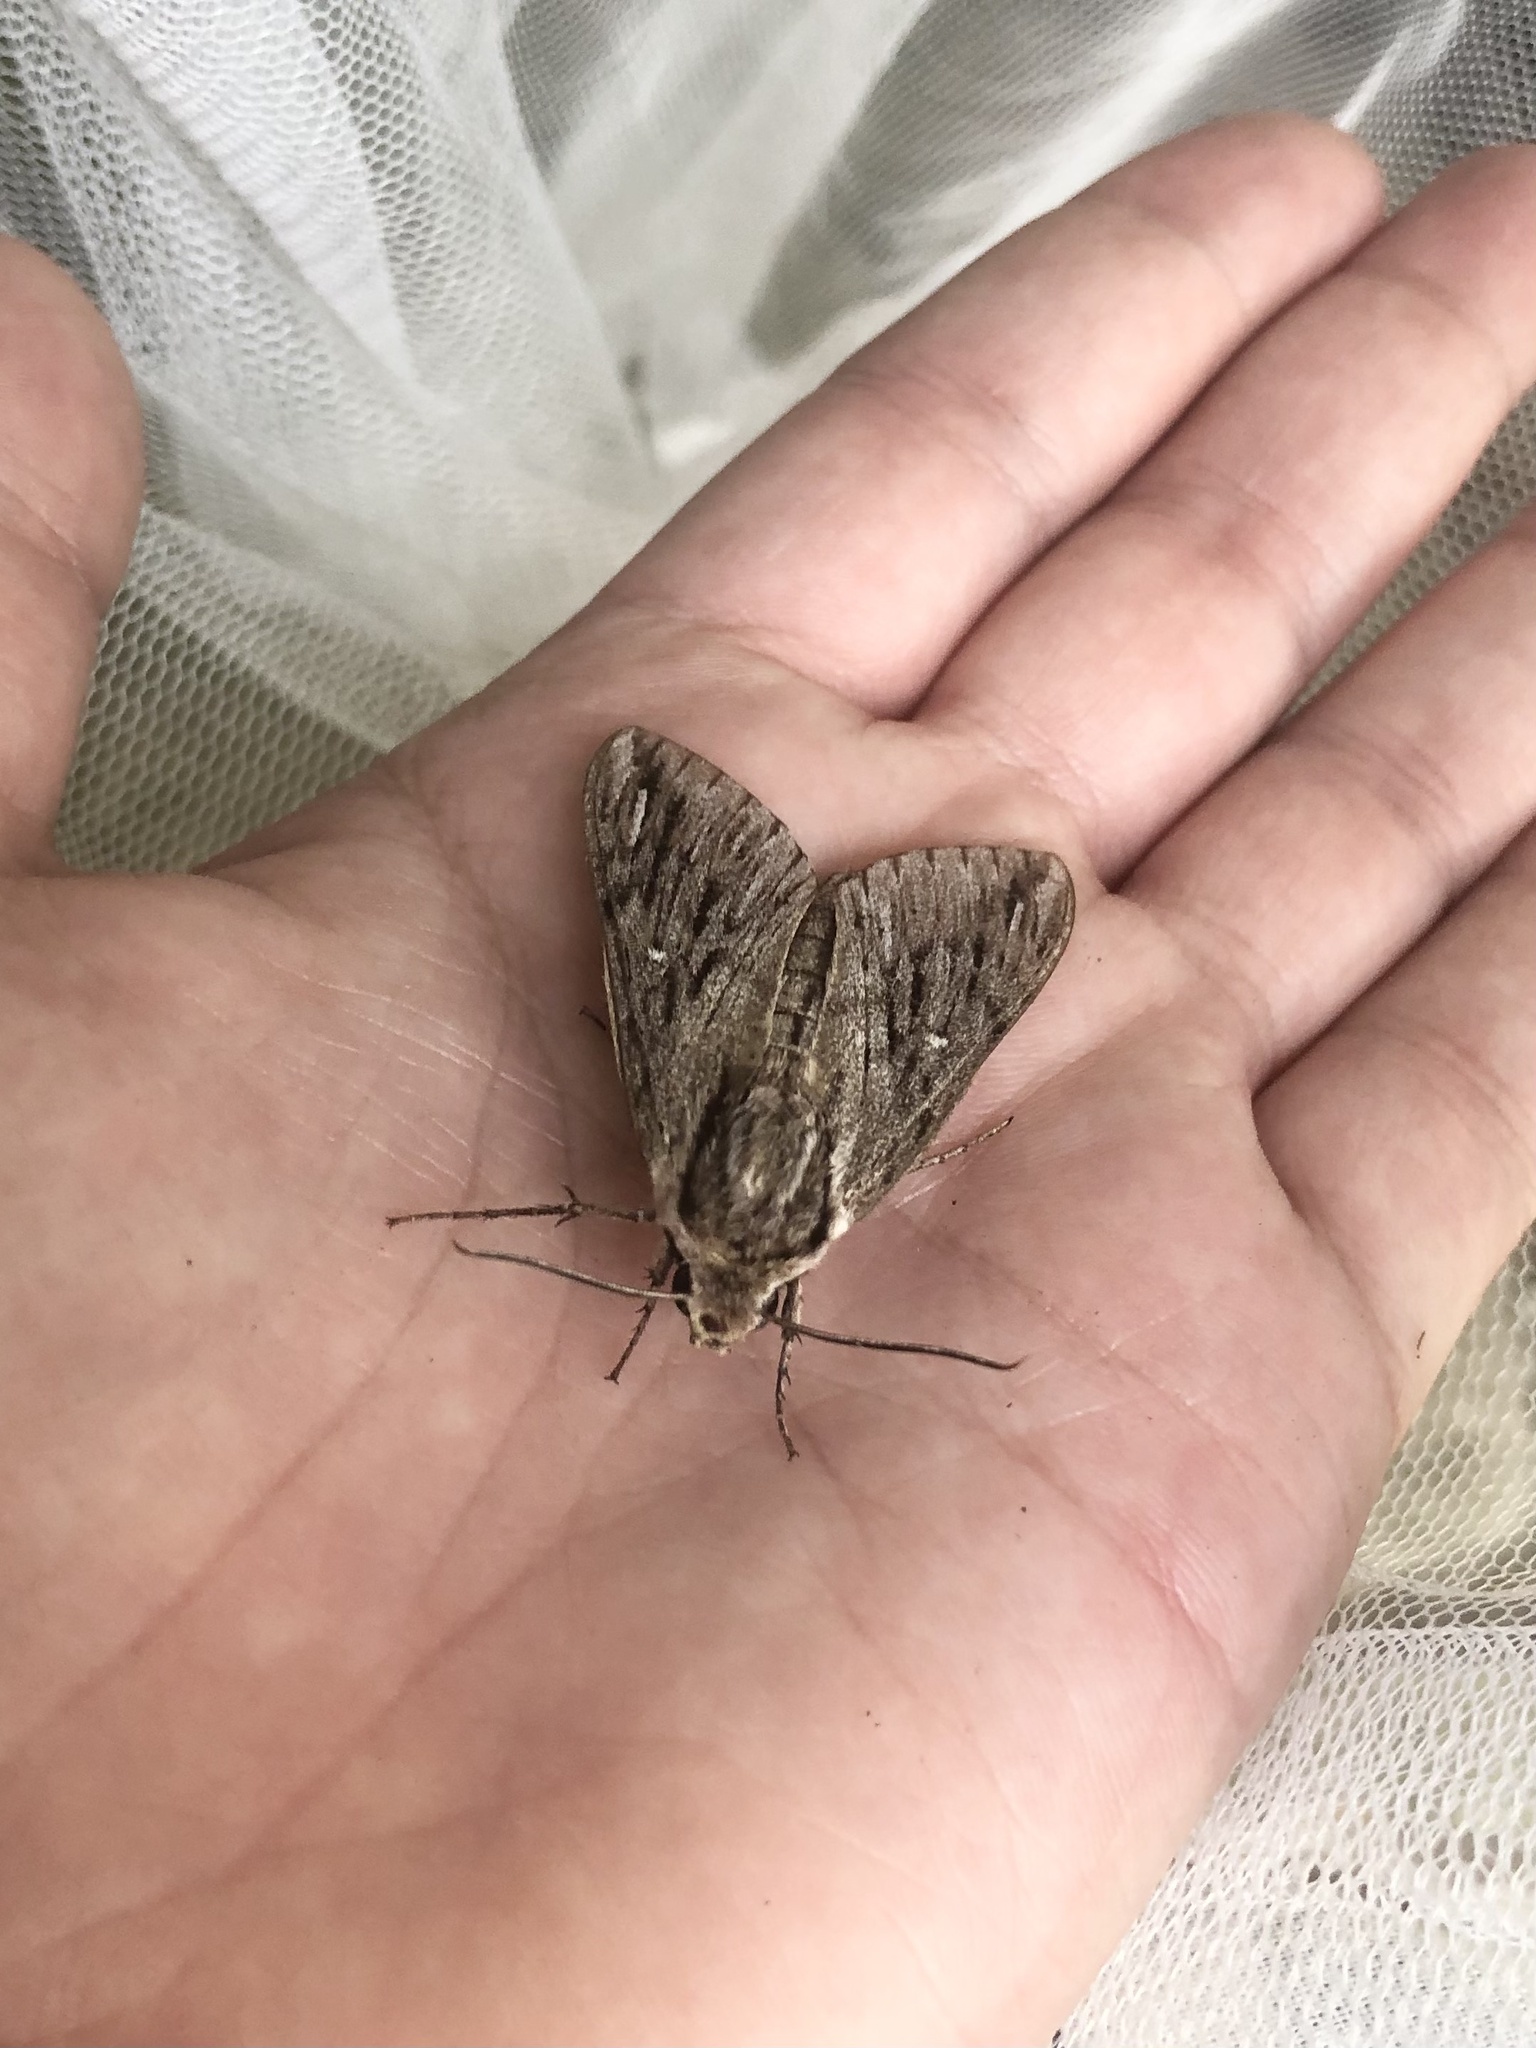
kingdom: Animalia
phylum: Arthropoda
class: Insecta
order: Lepidoptera
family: Sphingidae
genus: Paratrea
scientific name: Paratrea plebeja
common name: Plebian sphinx
